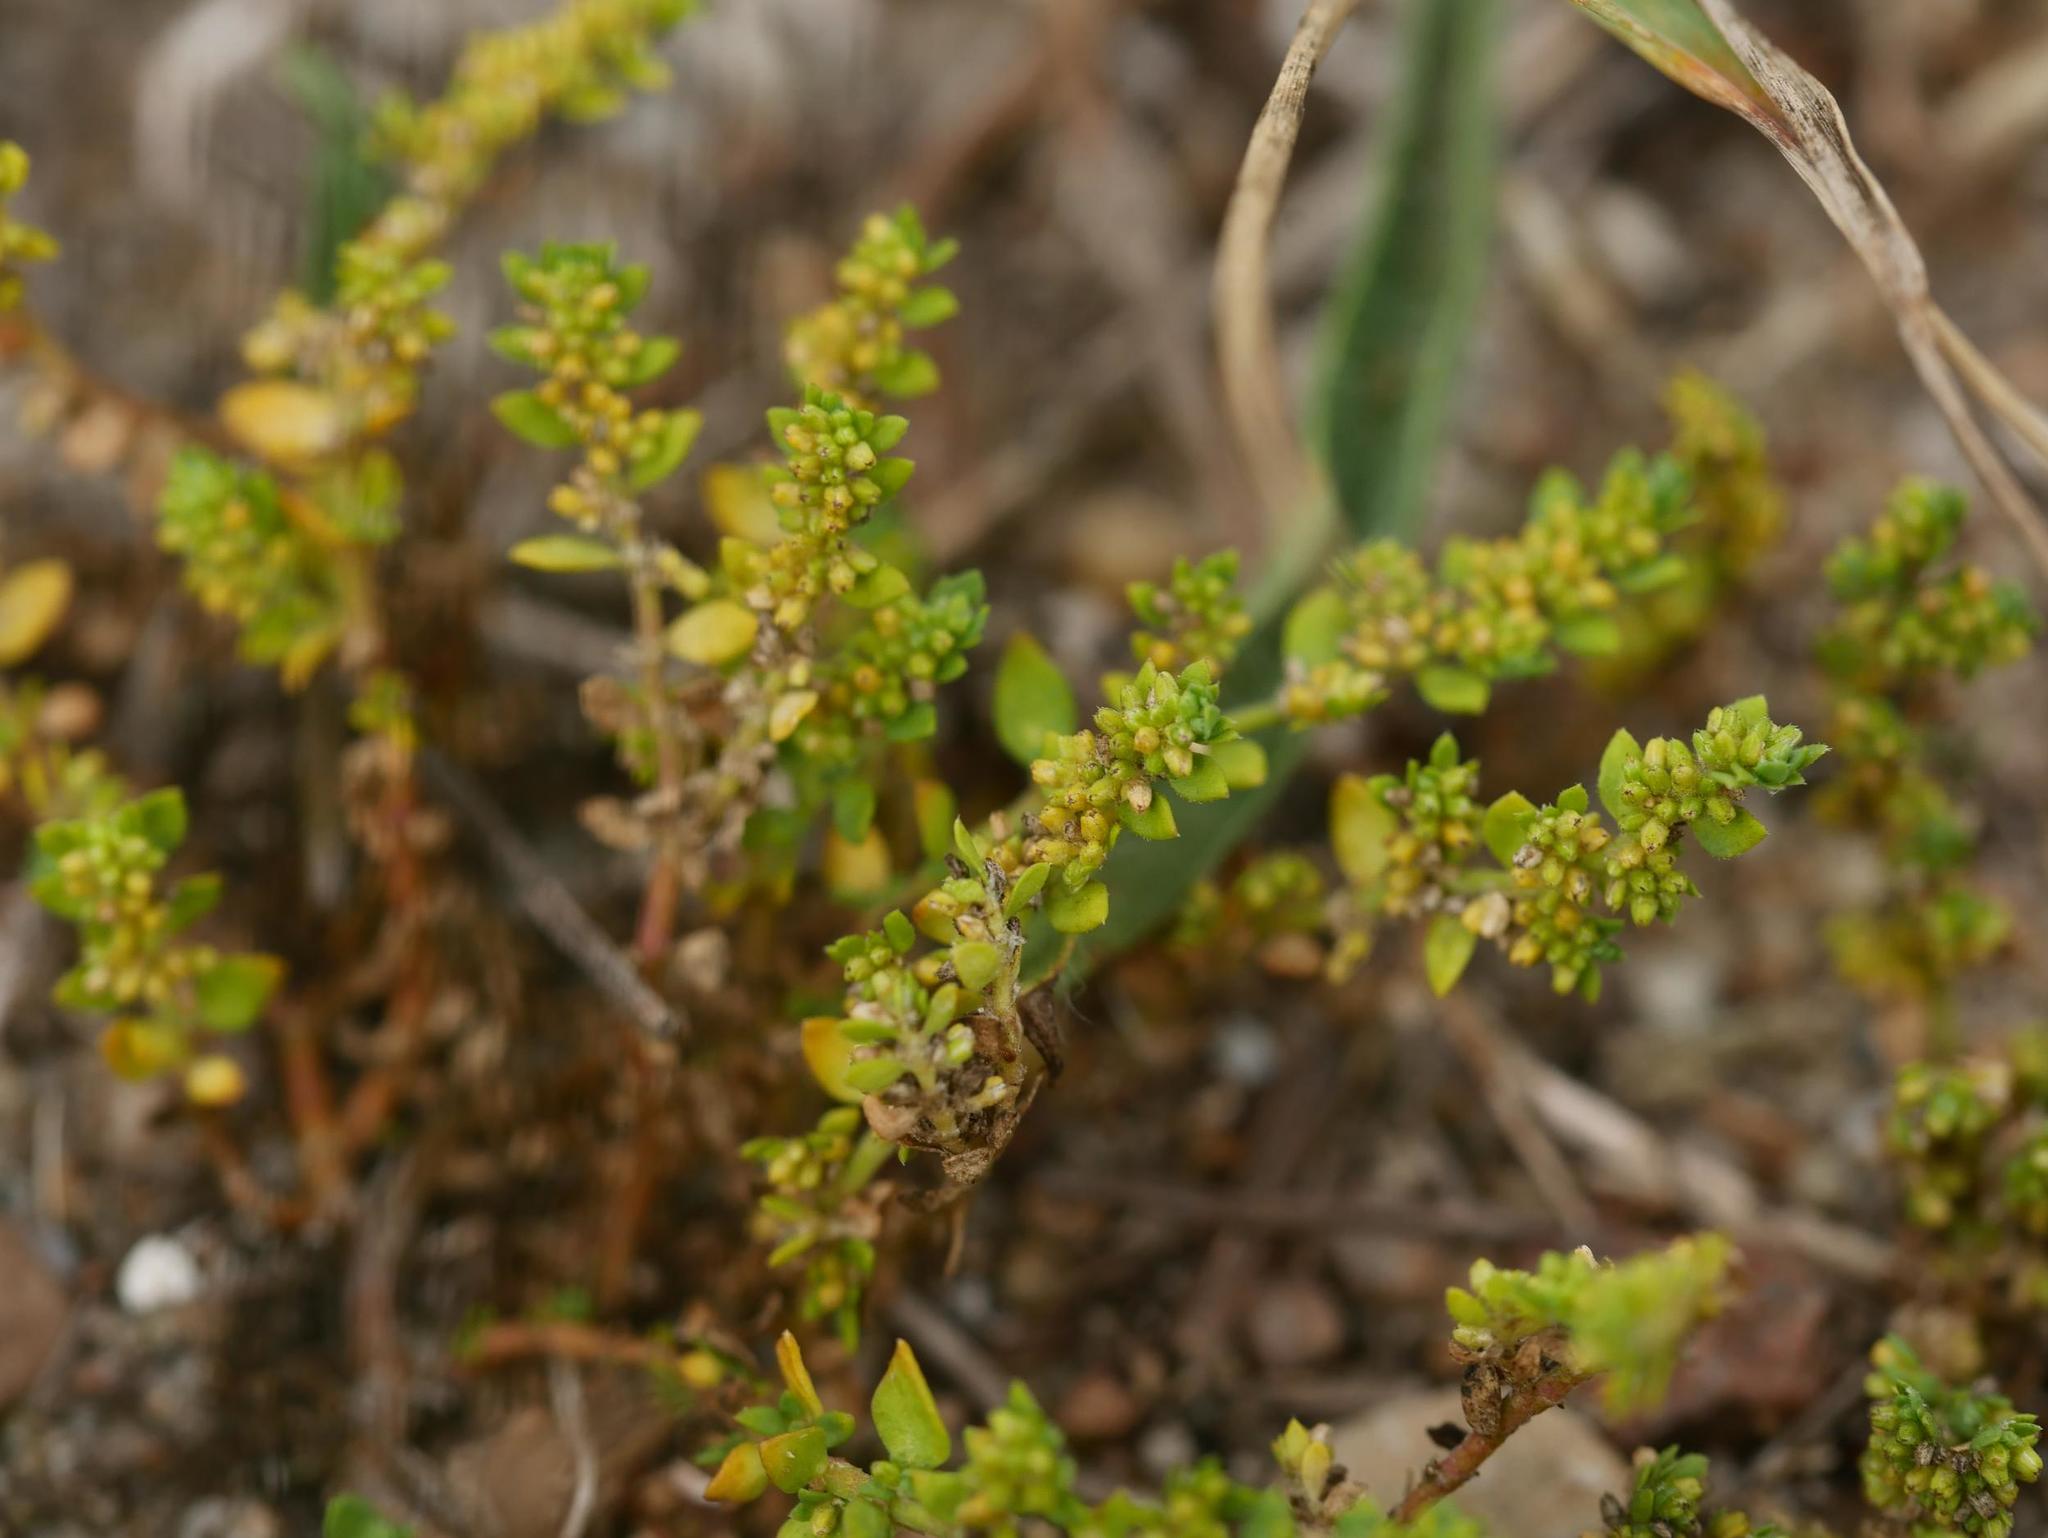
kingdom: Plantae
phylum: Tracheophyta
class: Magnoliopsida
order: Caryophyllales
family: Caryophyllaceae
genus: Herniaria
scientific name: Herniaria glabra
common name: Smooth rupturewort
